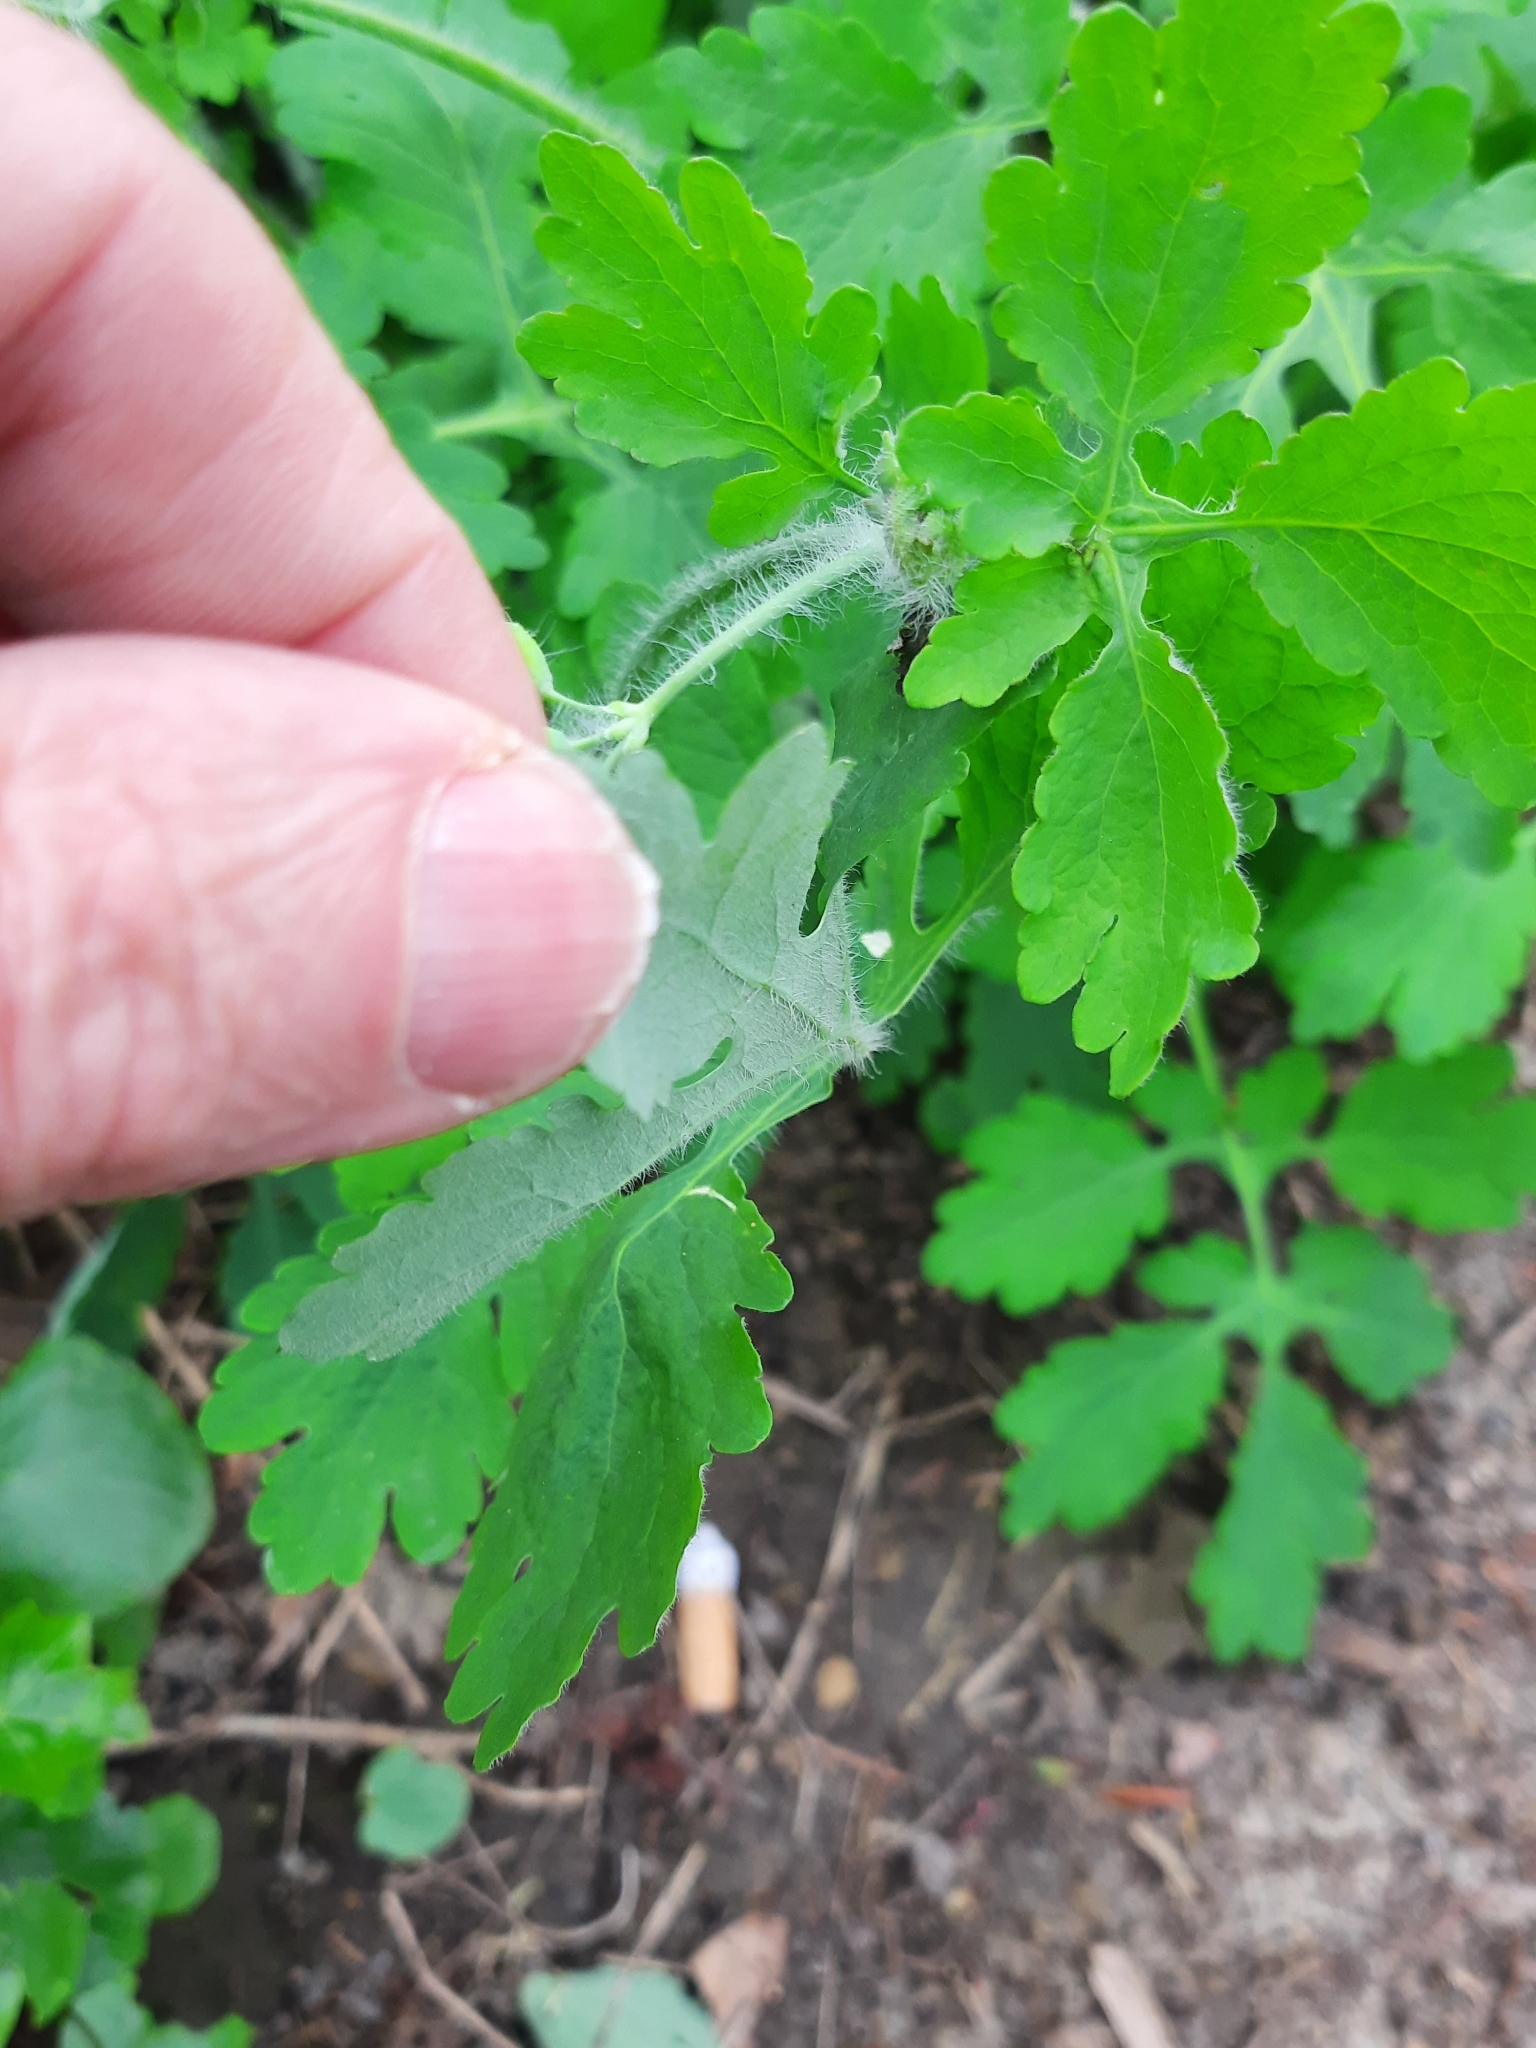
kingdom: Plantae
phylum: Tracheophyta
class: Magnoliopsida
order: Ranunculales
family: Papaveraceae
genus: Chelidonium
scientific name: Chelidonium majus
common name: Greater celandine
